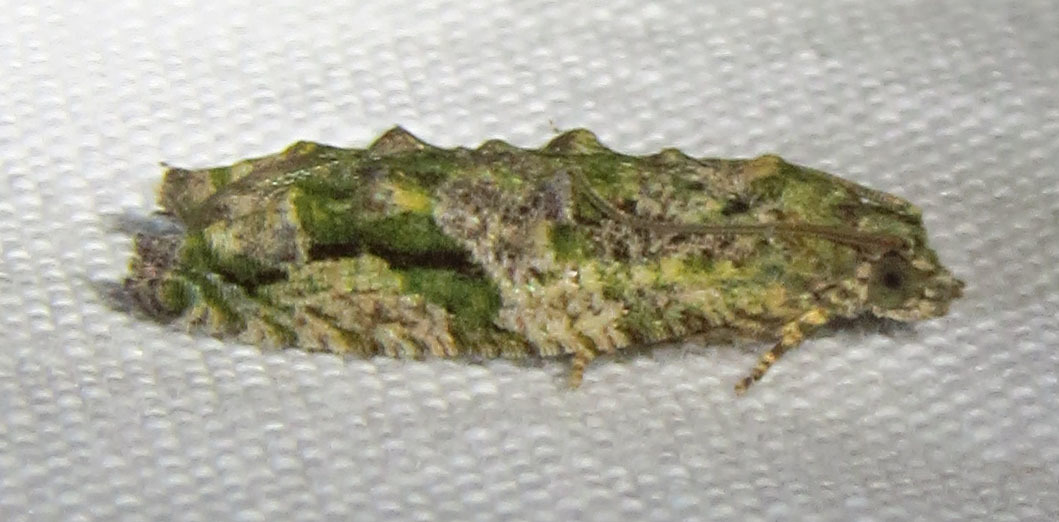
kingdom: Animalia
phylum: Arthropoda
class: Insecta
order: Lepidoptera
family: Tortricidae
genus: Proteoteras
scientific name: Proteoteras aesculana
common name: Maple twig borer moth
